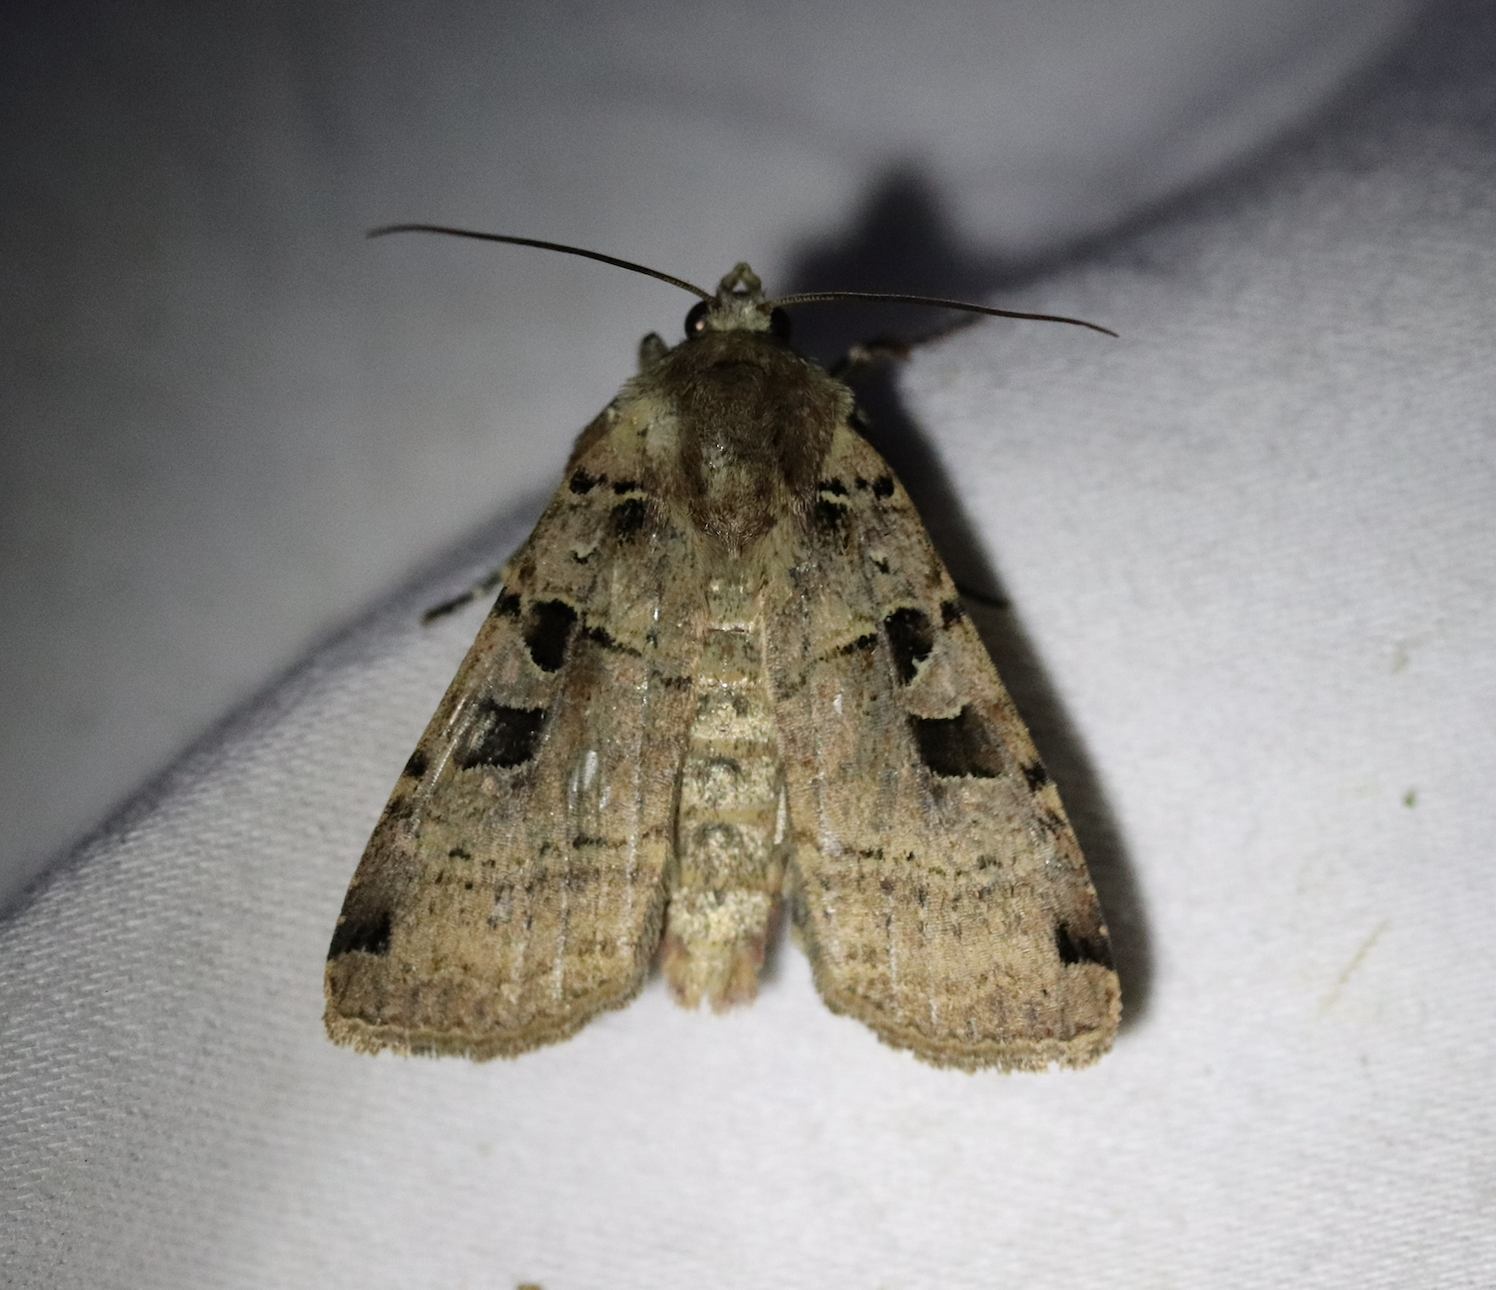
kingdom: Animalia
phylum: Arthropoda
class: Insecta
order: Lepidoptera
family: Noctuidae
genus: Xestia
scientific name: Xestia triangulum
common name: Double square-spot
